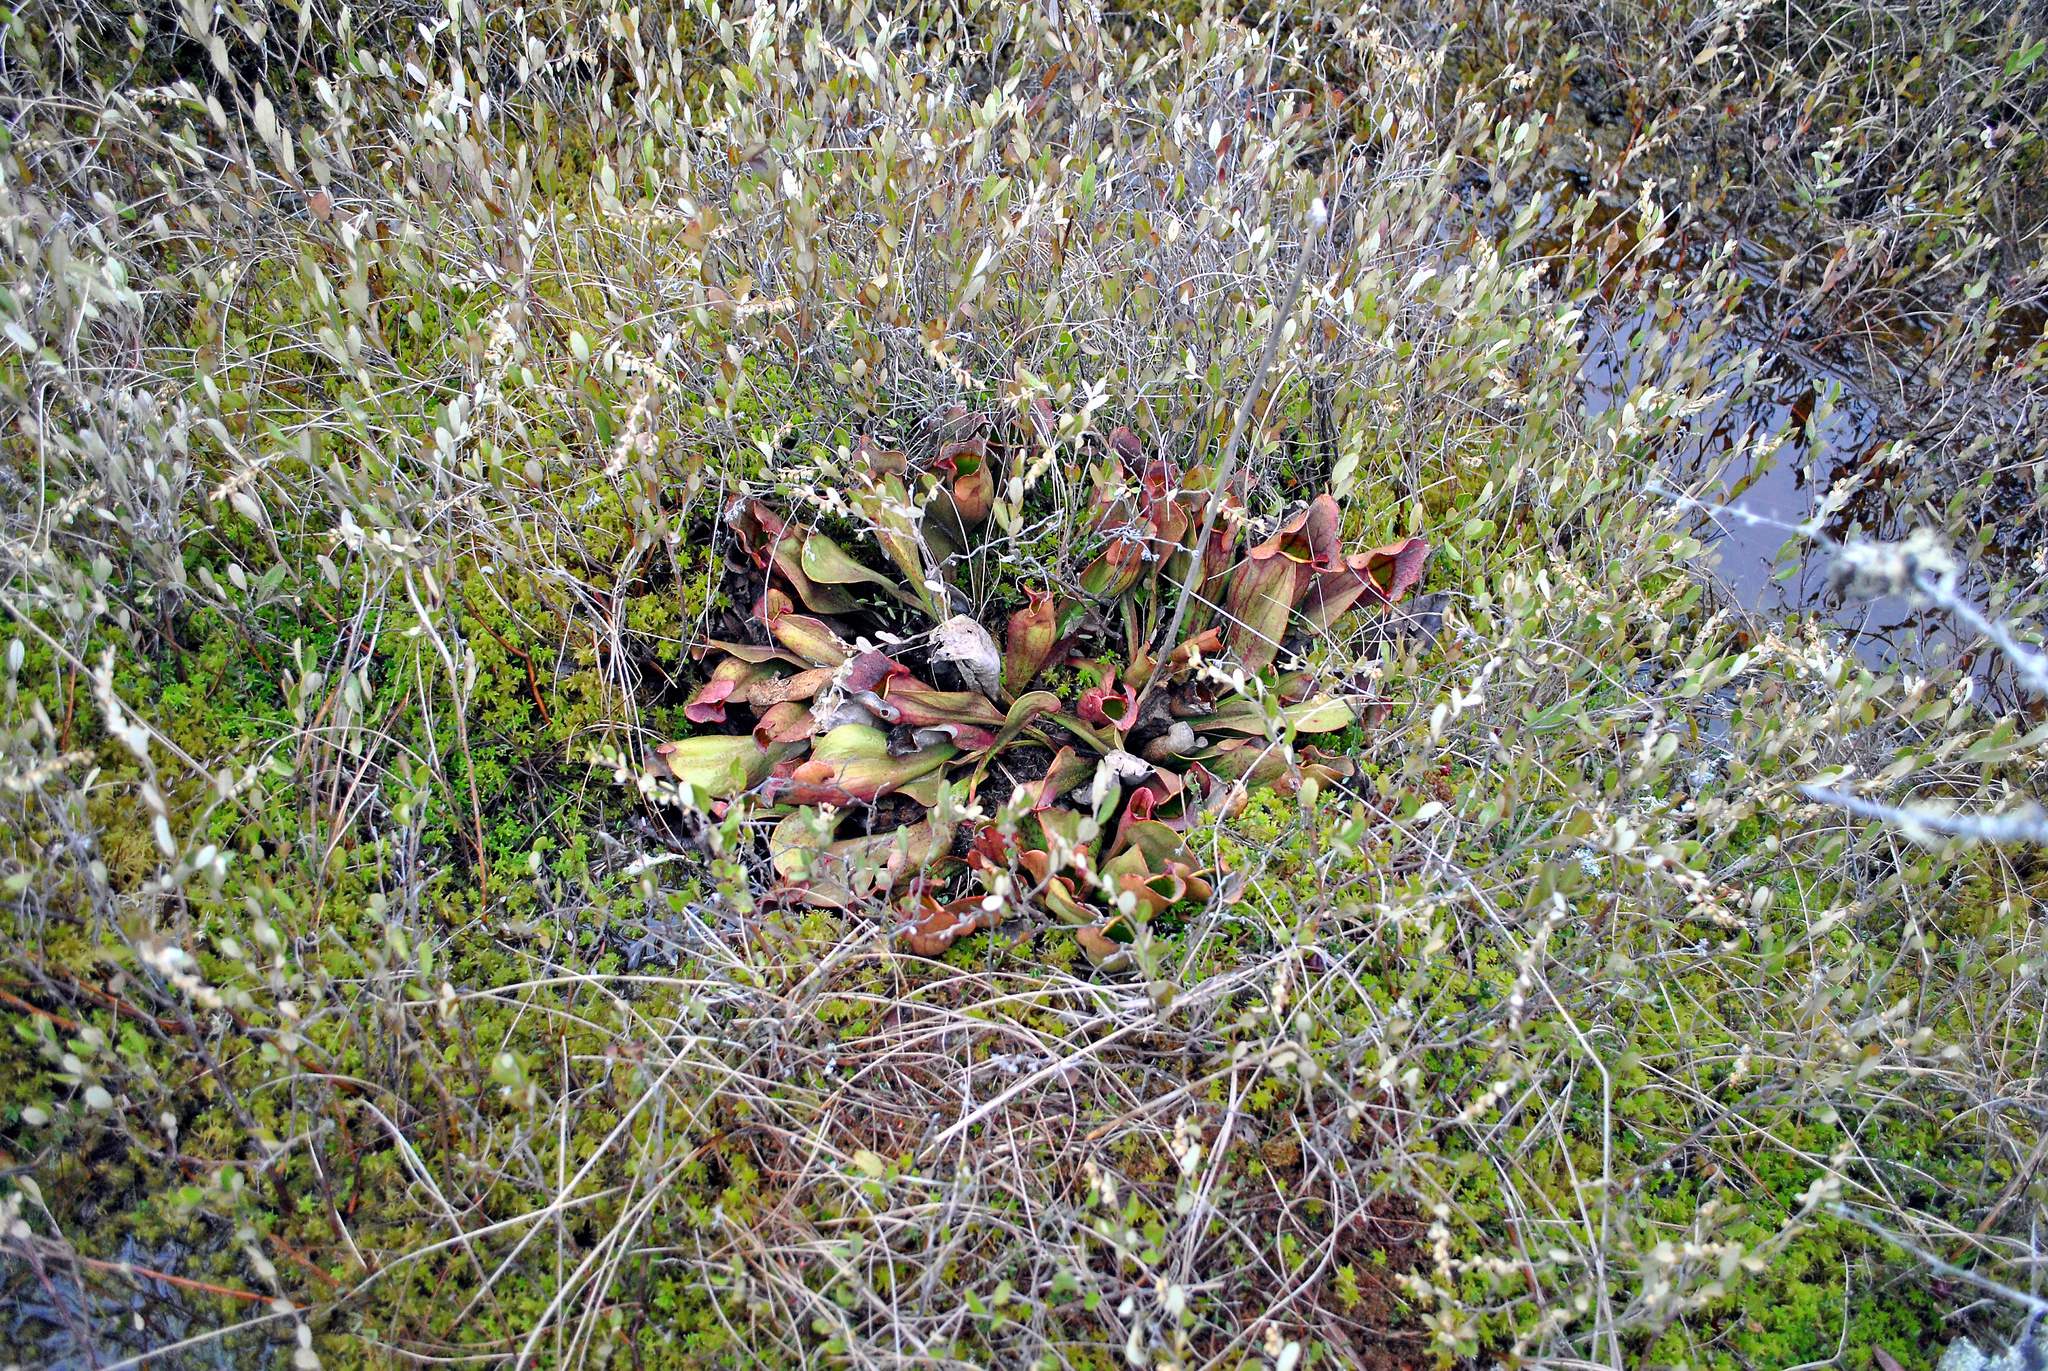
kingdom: Plantae
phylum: Tracheophyta
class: Magnoliopsida
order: Ericales
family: Sarraceniaceae
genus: Sarracenia
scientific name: Sarracenia purpurea
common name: Pitcherplant
